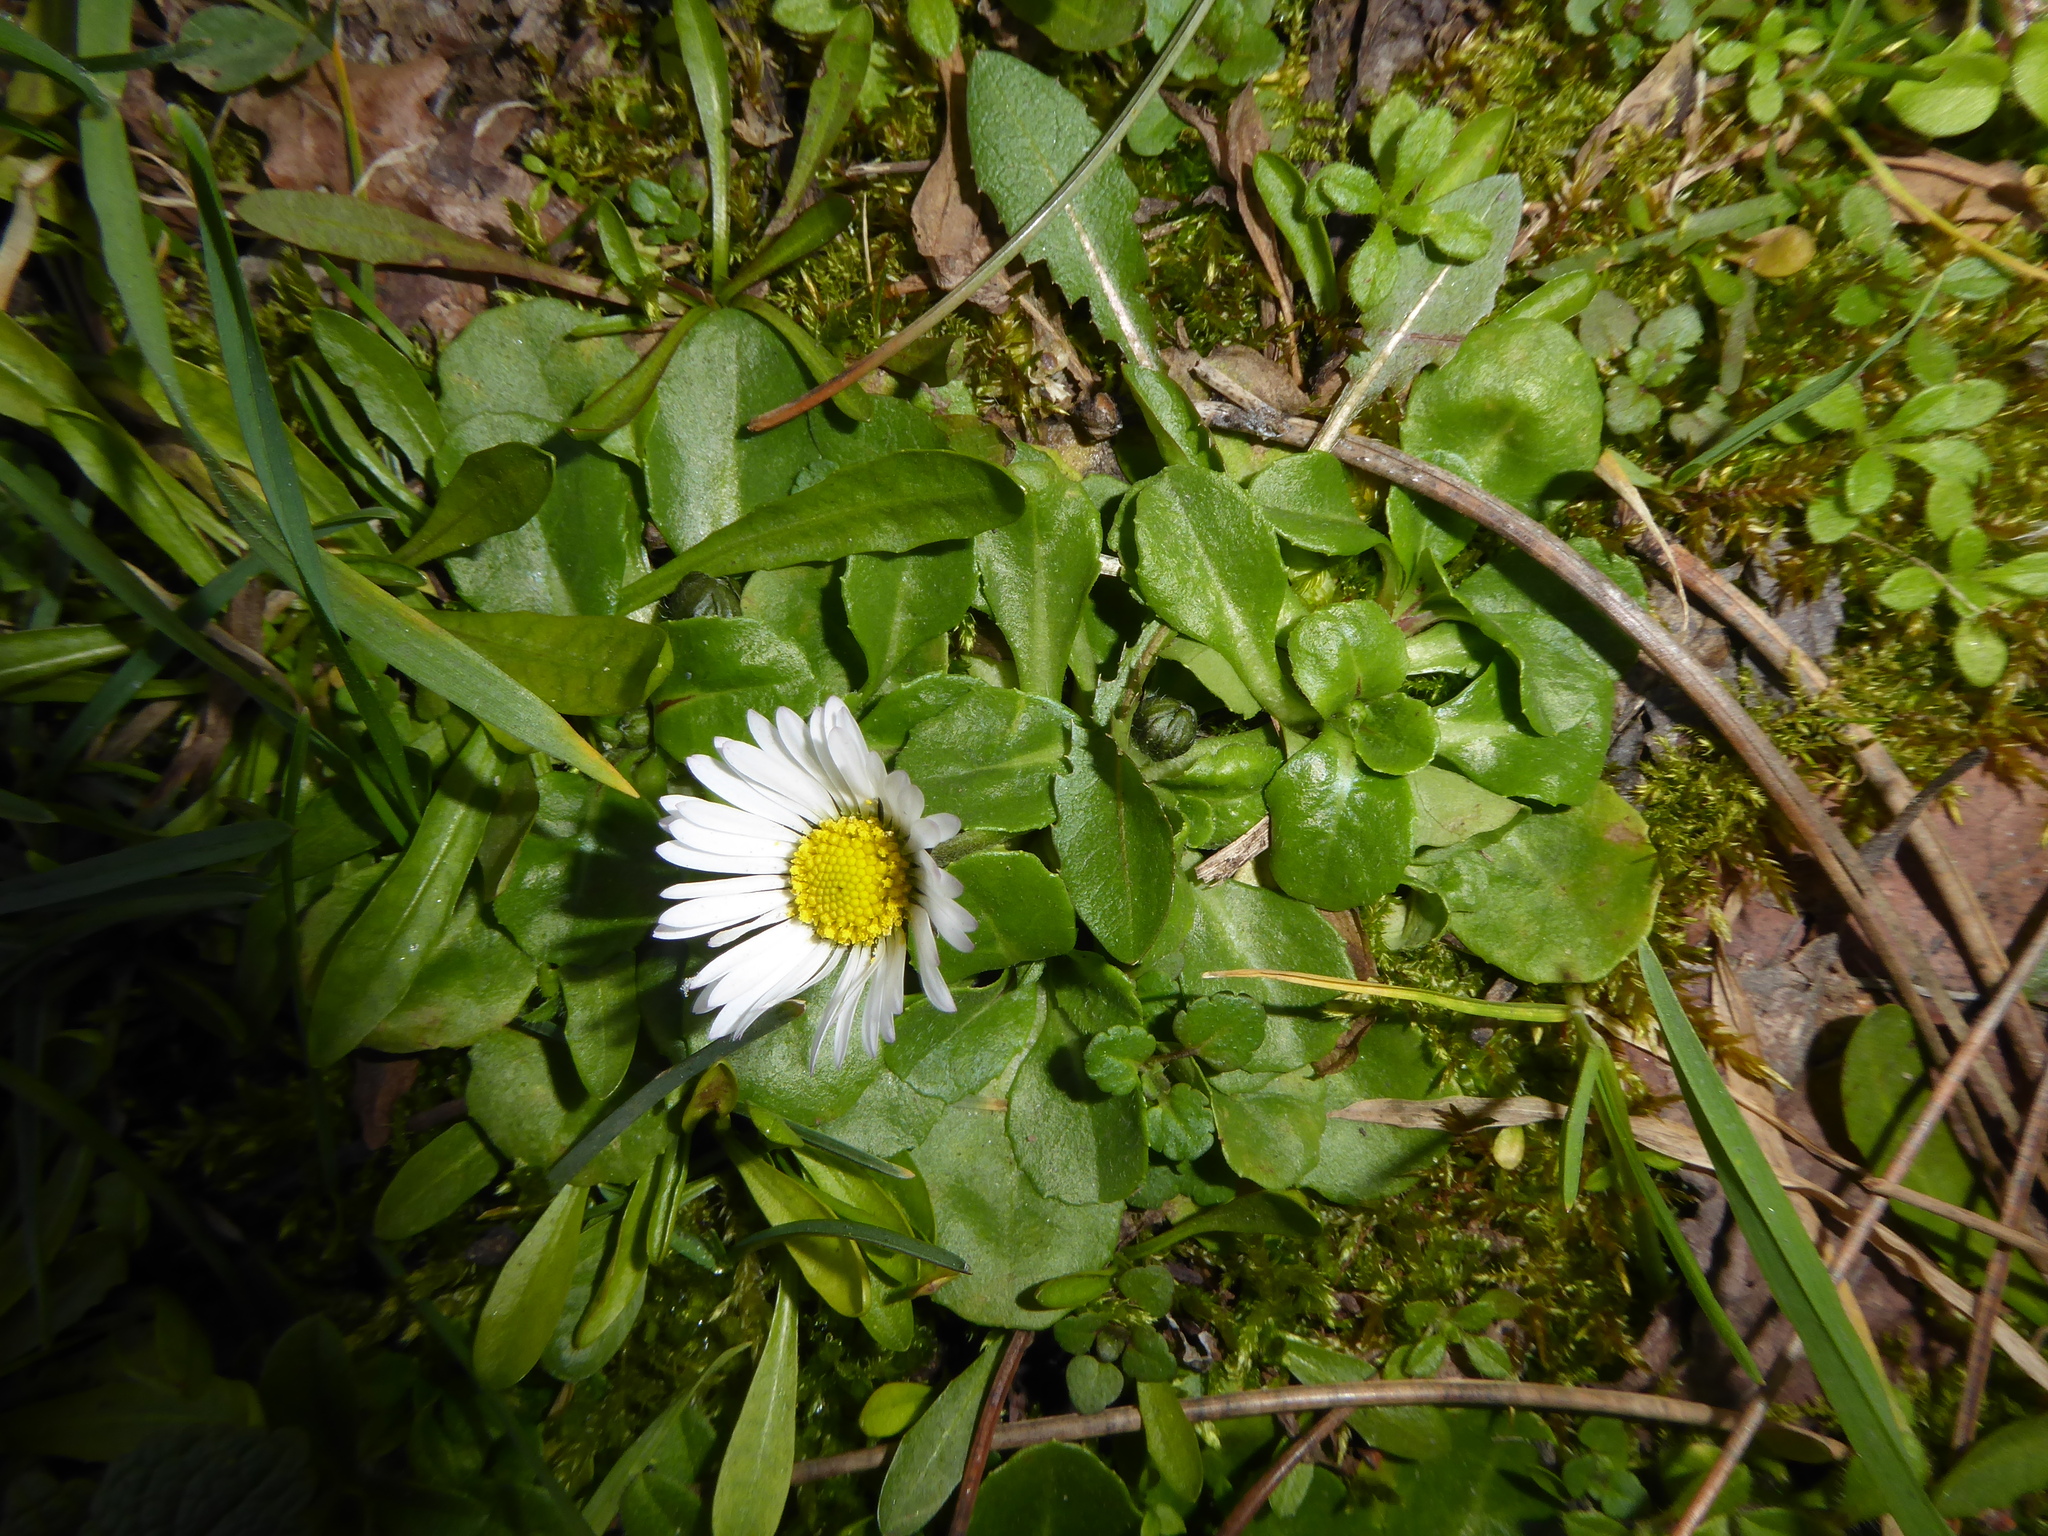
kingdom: Plantae
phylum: Tracheophyta
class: Magnoliopsida
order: Asterales
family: Asteraceae
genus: Bellis
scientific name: Bellis perennis
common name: Lawndaisy
